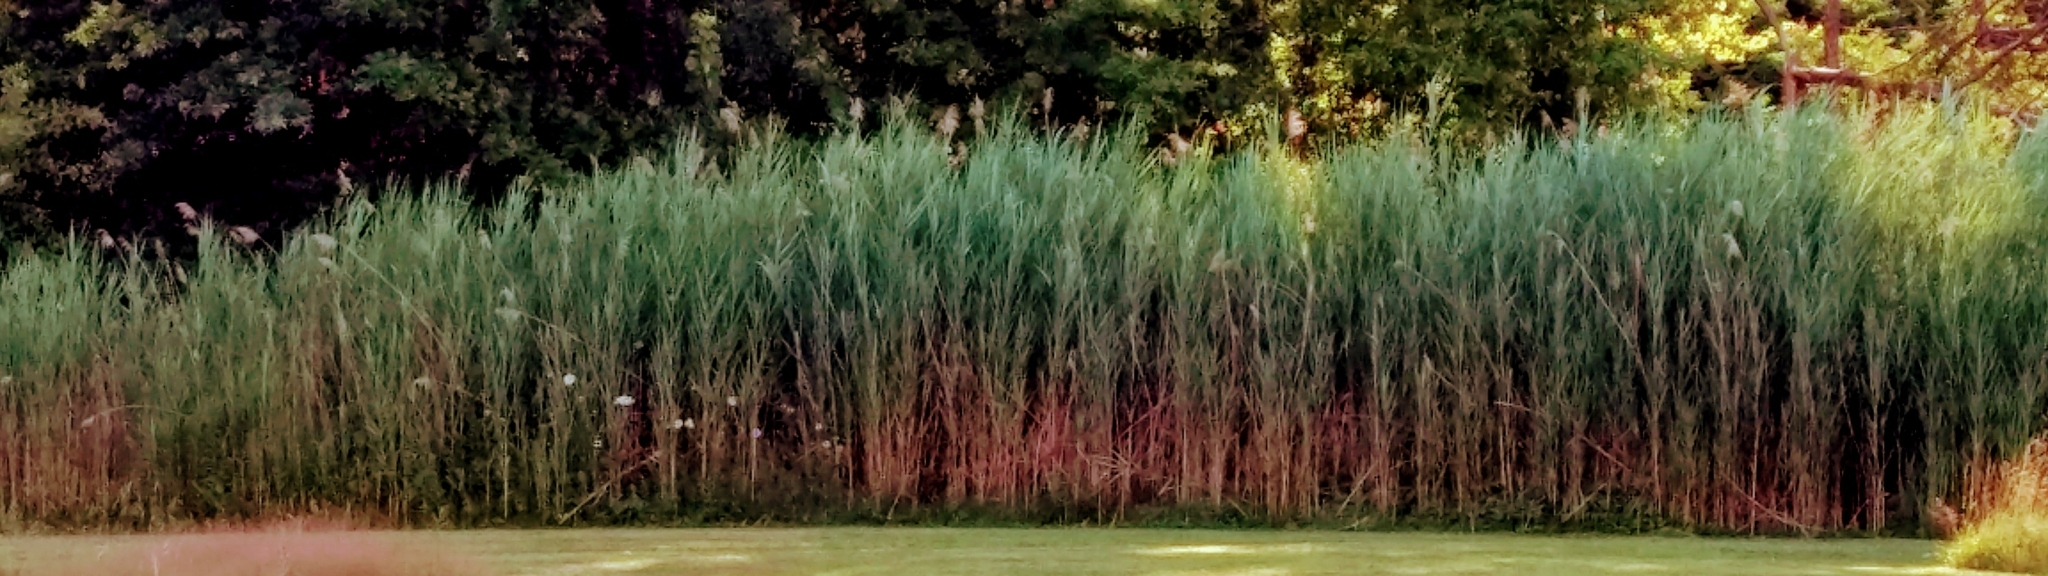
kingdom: Plantae
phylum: Tracheophyta
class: Liliopsida
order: Poales
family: Poaceae
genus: Phragmites
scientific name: Phragmites australis
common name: Common reed
